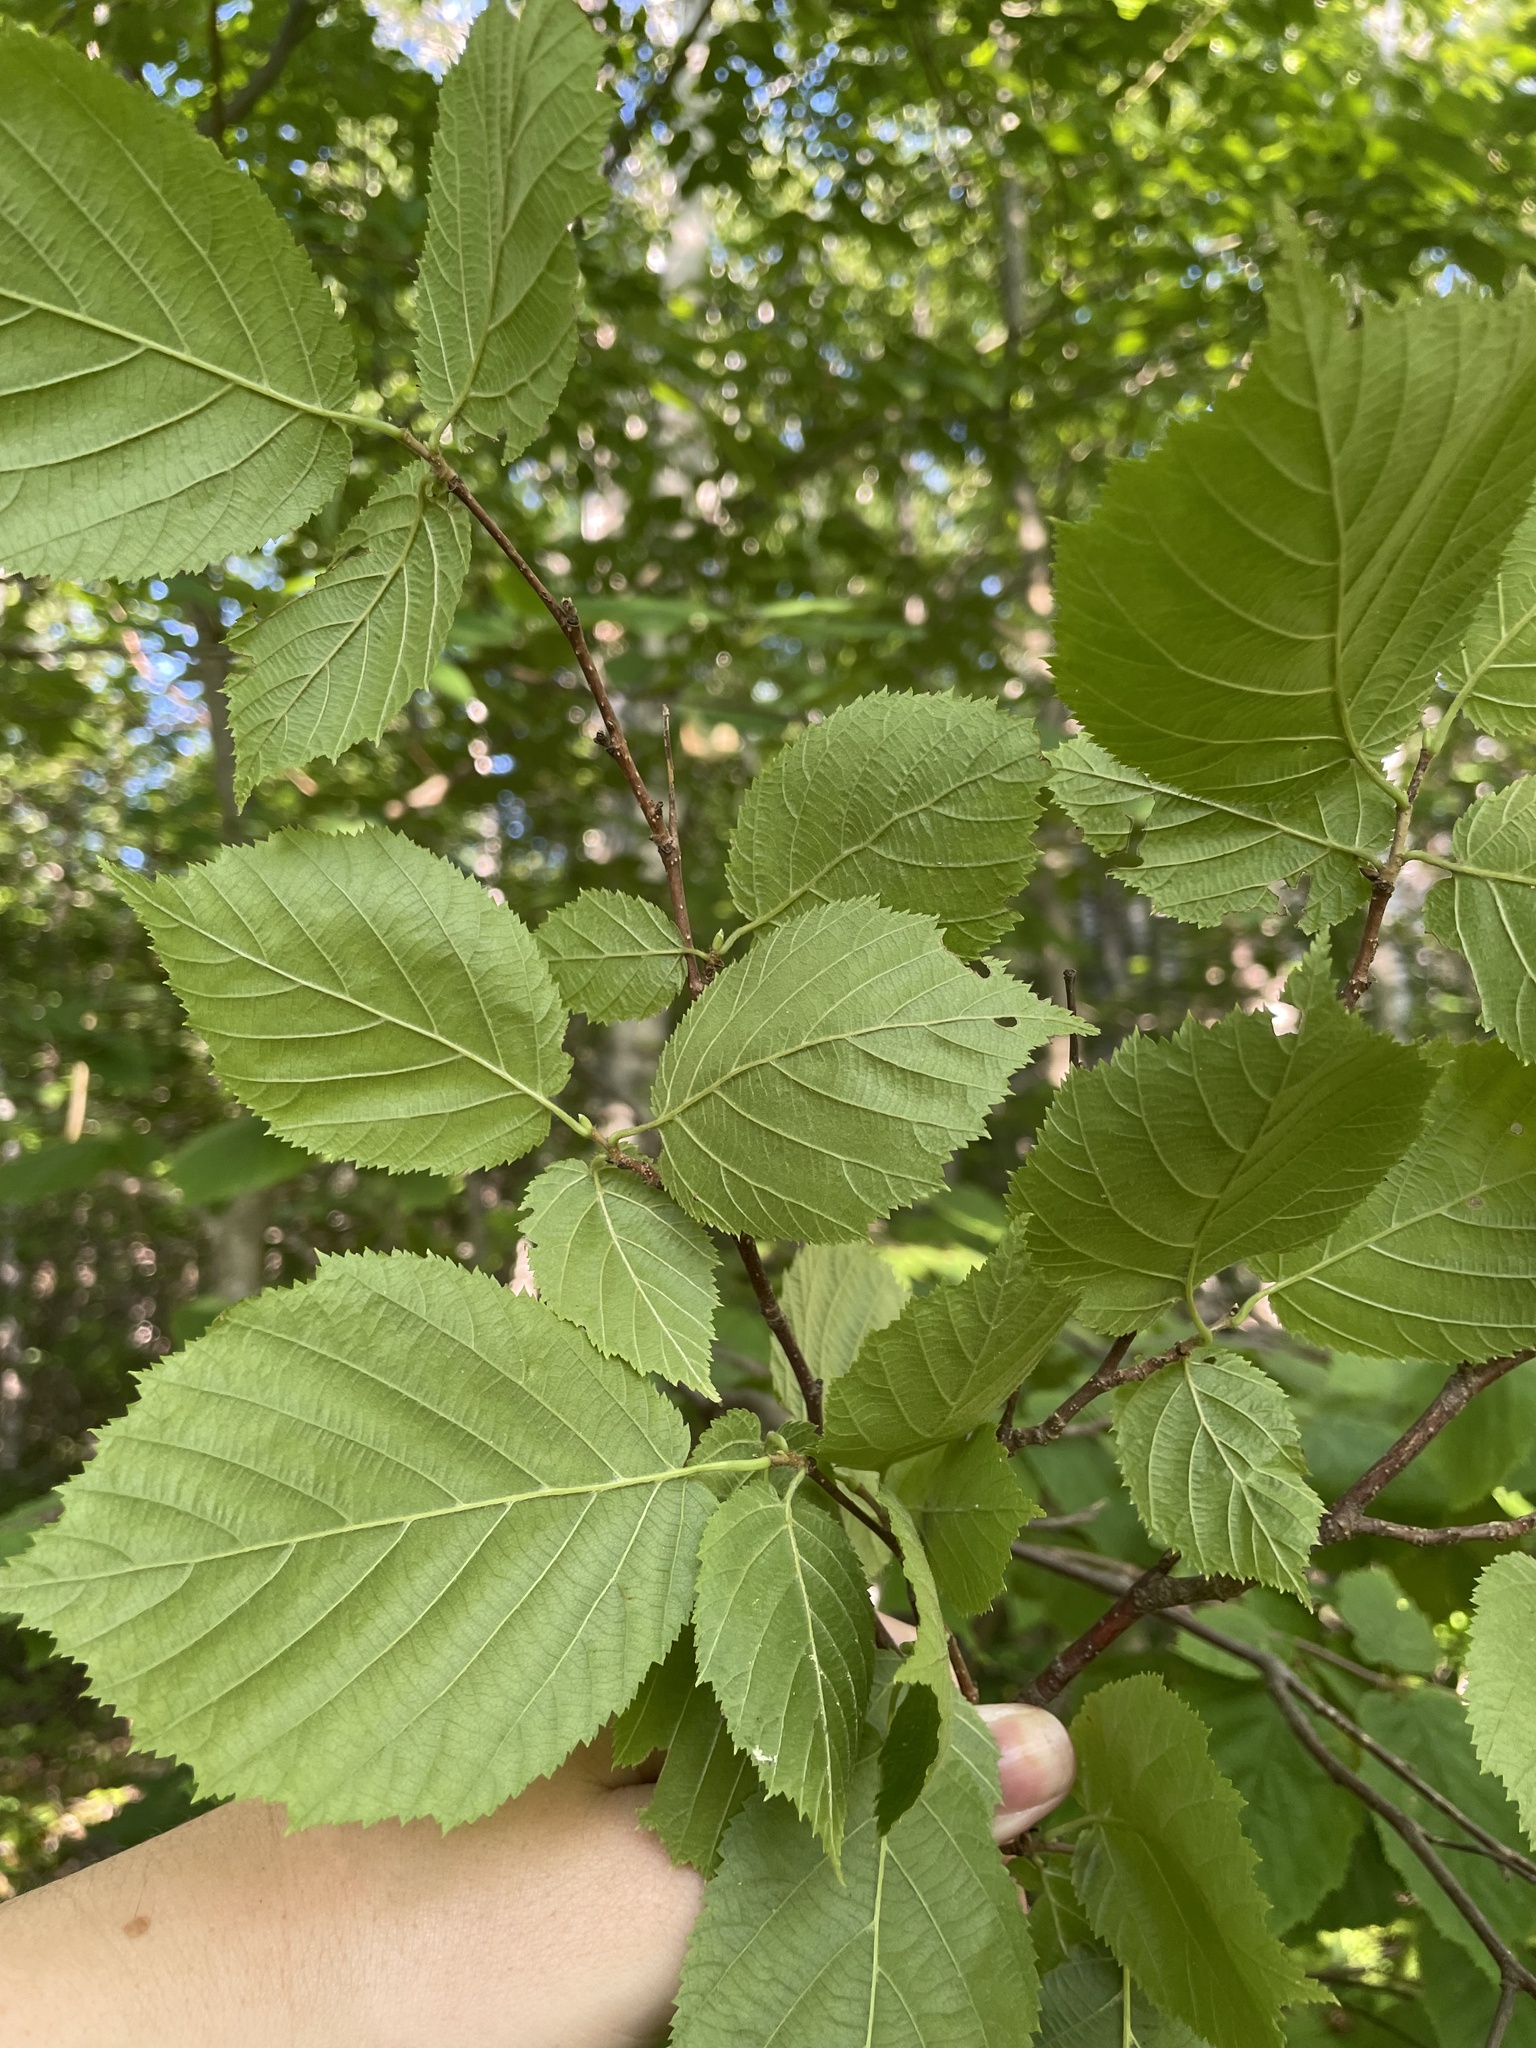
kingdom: Plantae
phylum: Tracheophyta
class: Magnoliopsida
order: Fagales
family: Betulaceae
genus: Corylus
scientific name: Corylus cornuta
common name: Beaked hazel
